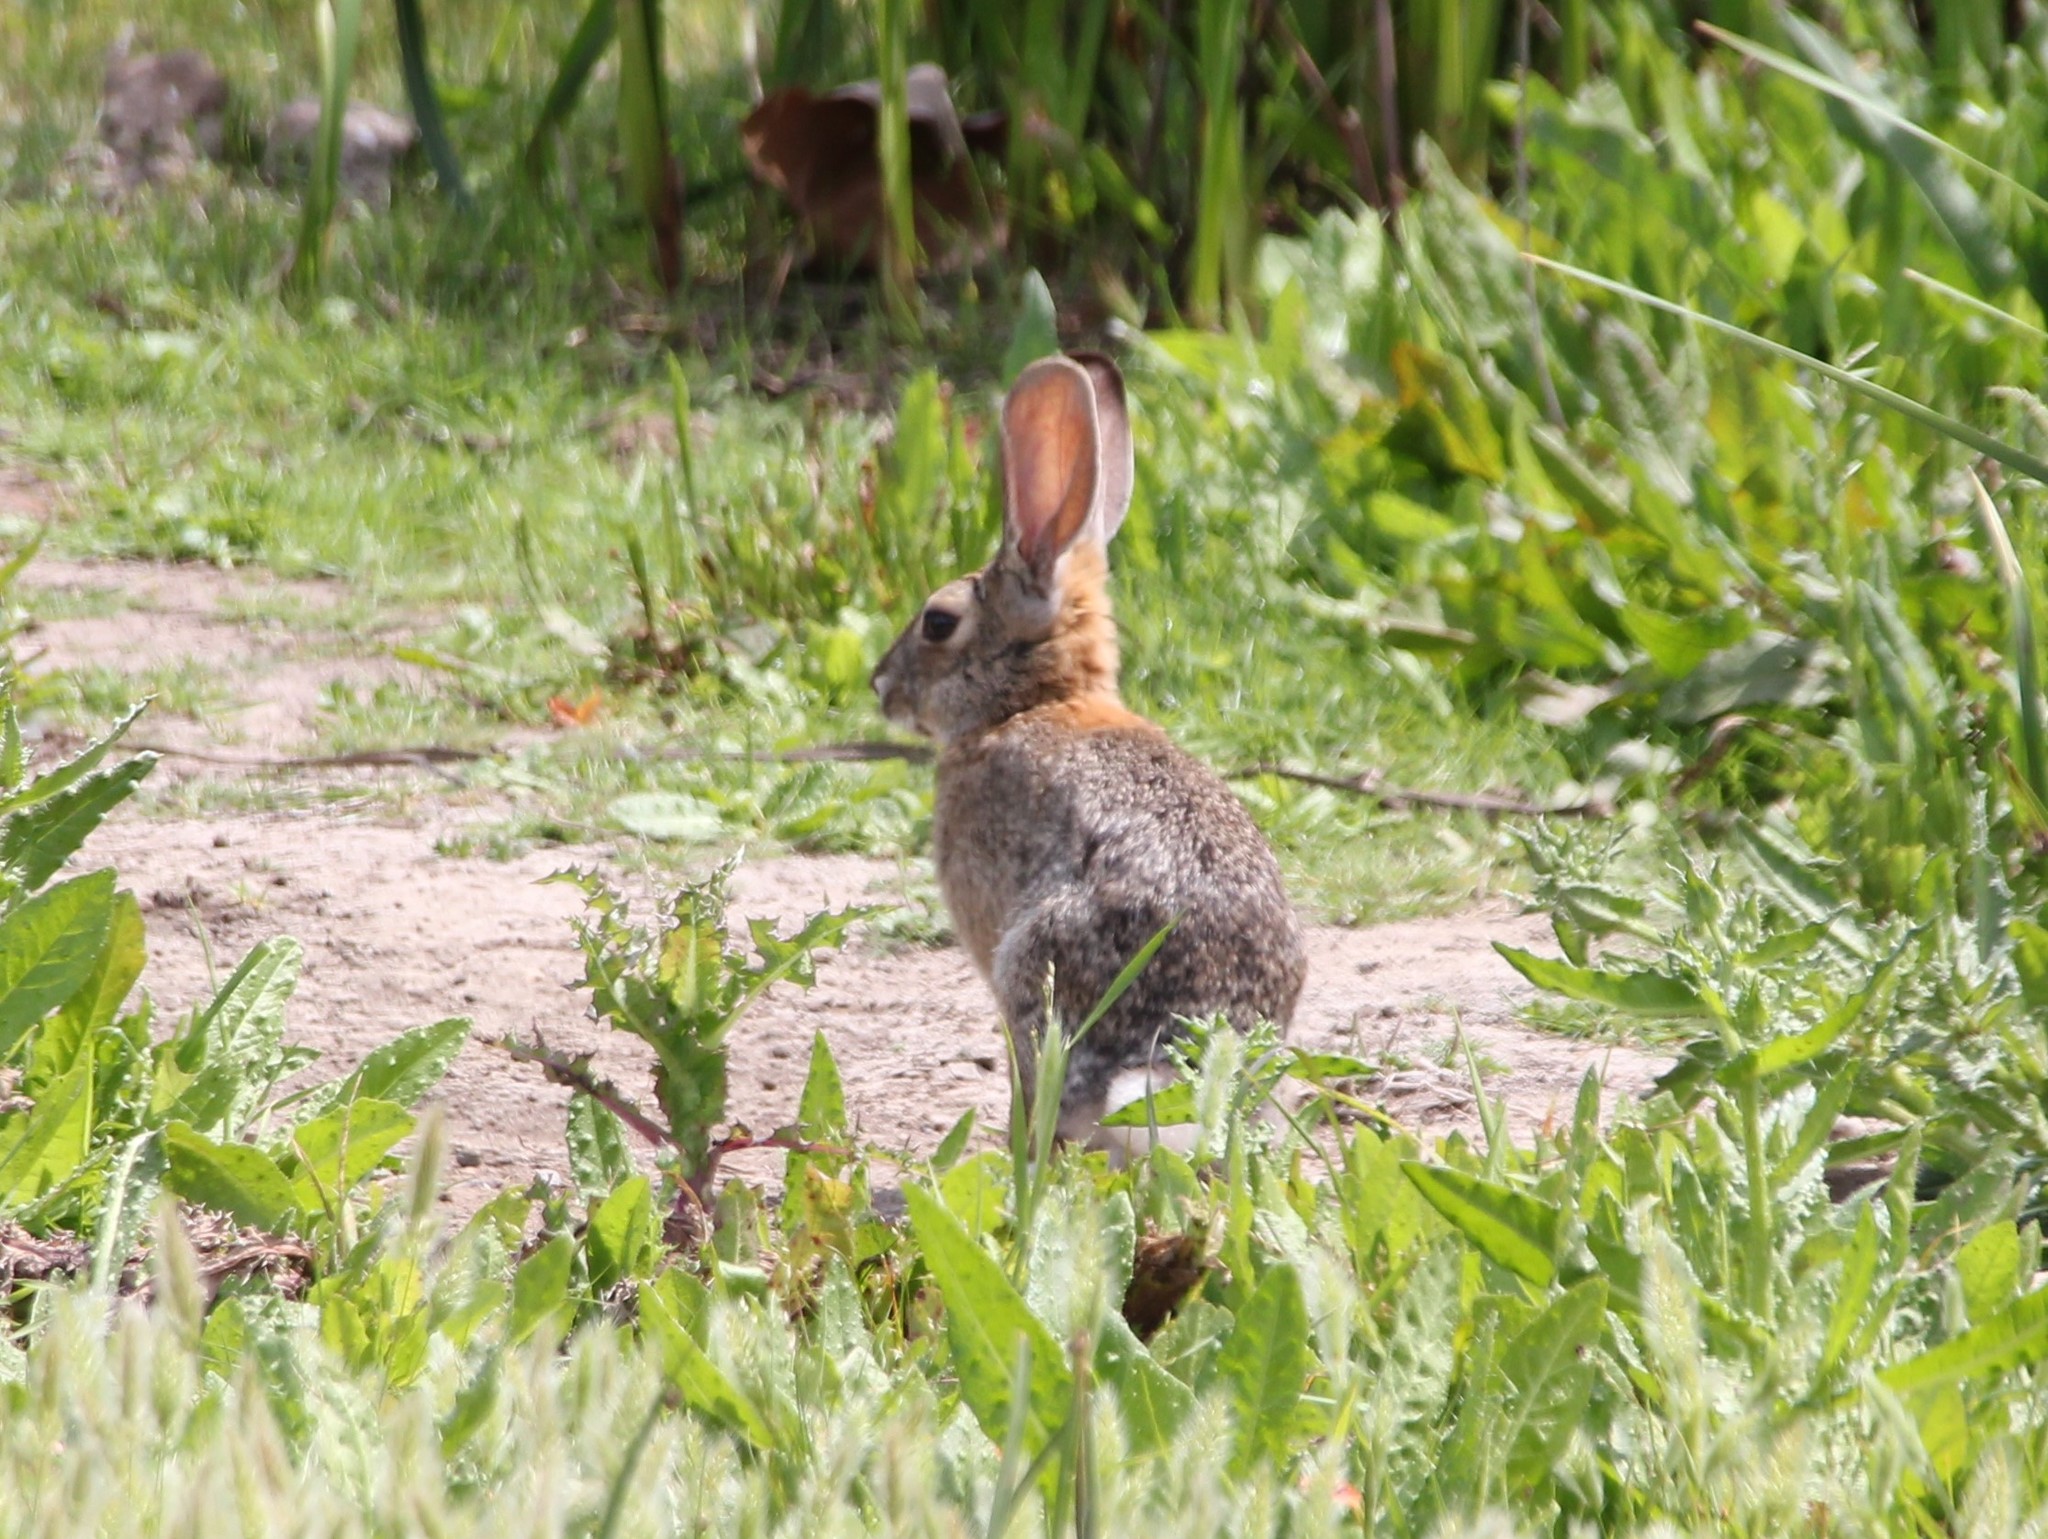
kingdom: Animalia
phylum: Chordata
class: Mammalia
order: Lagomorpha
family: Leporidae
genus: Sylvilagus
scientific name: Sylvilagus audubonii
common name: Desert cottontail
